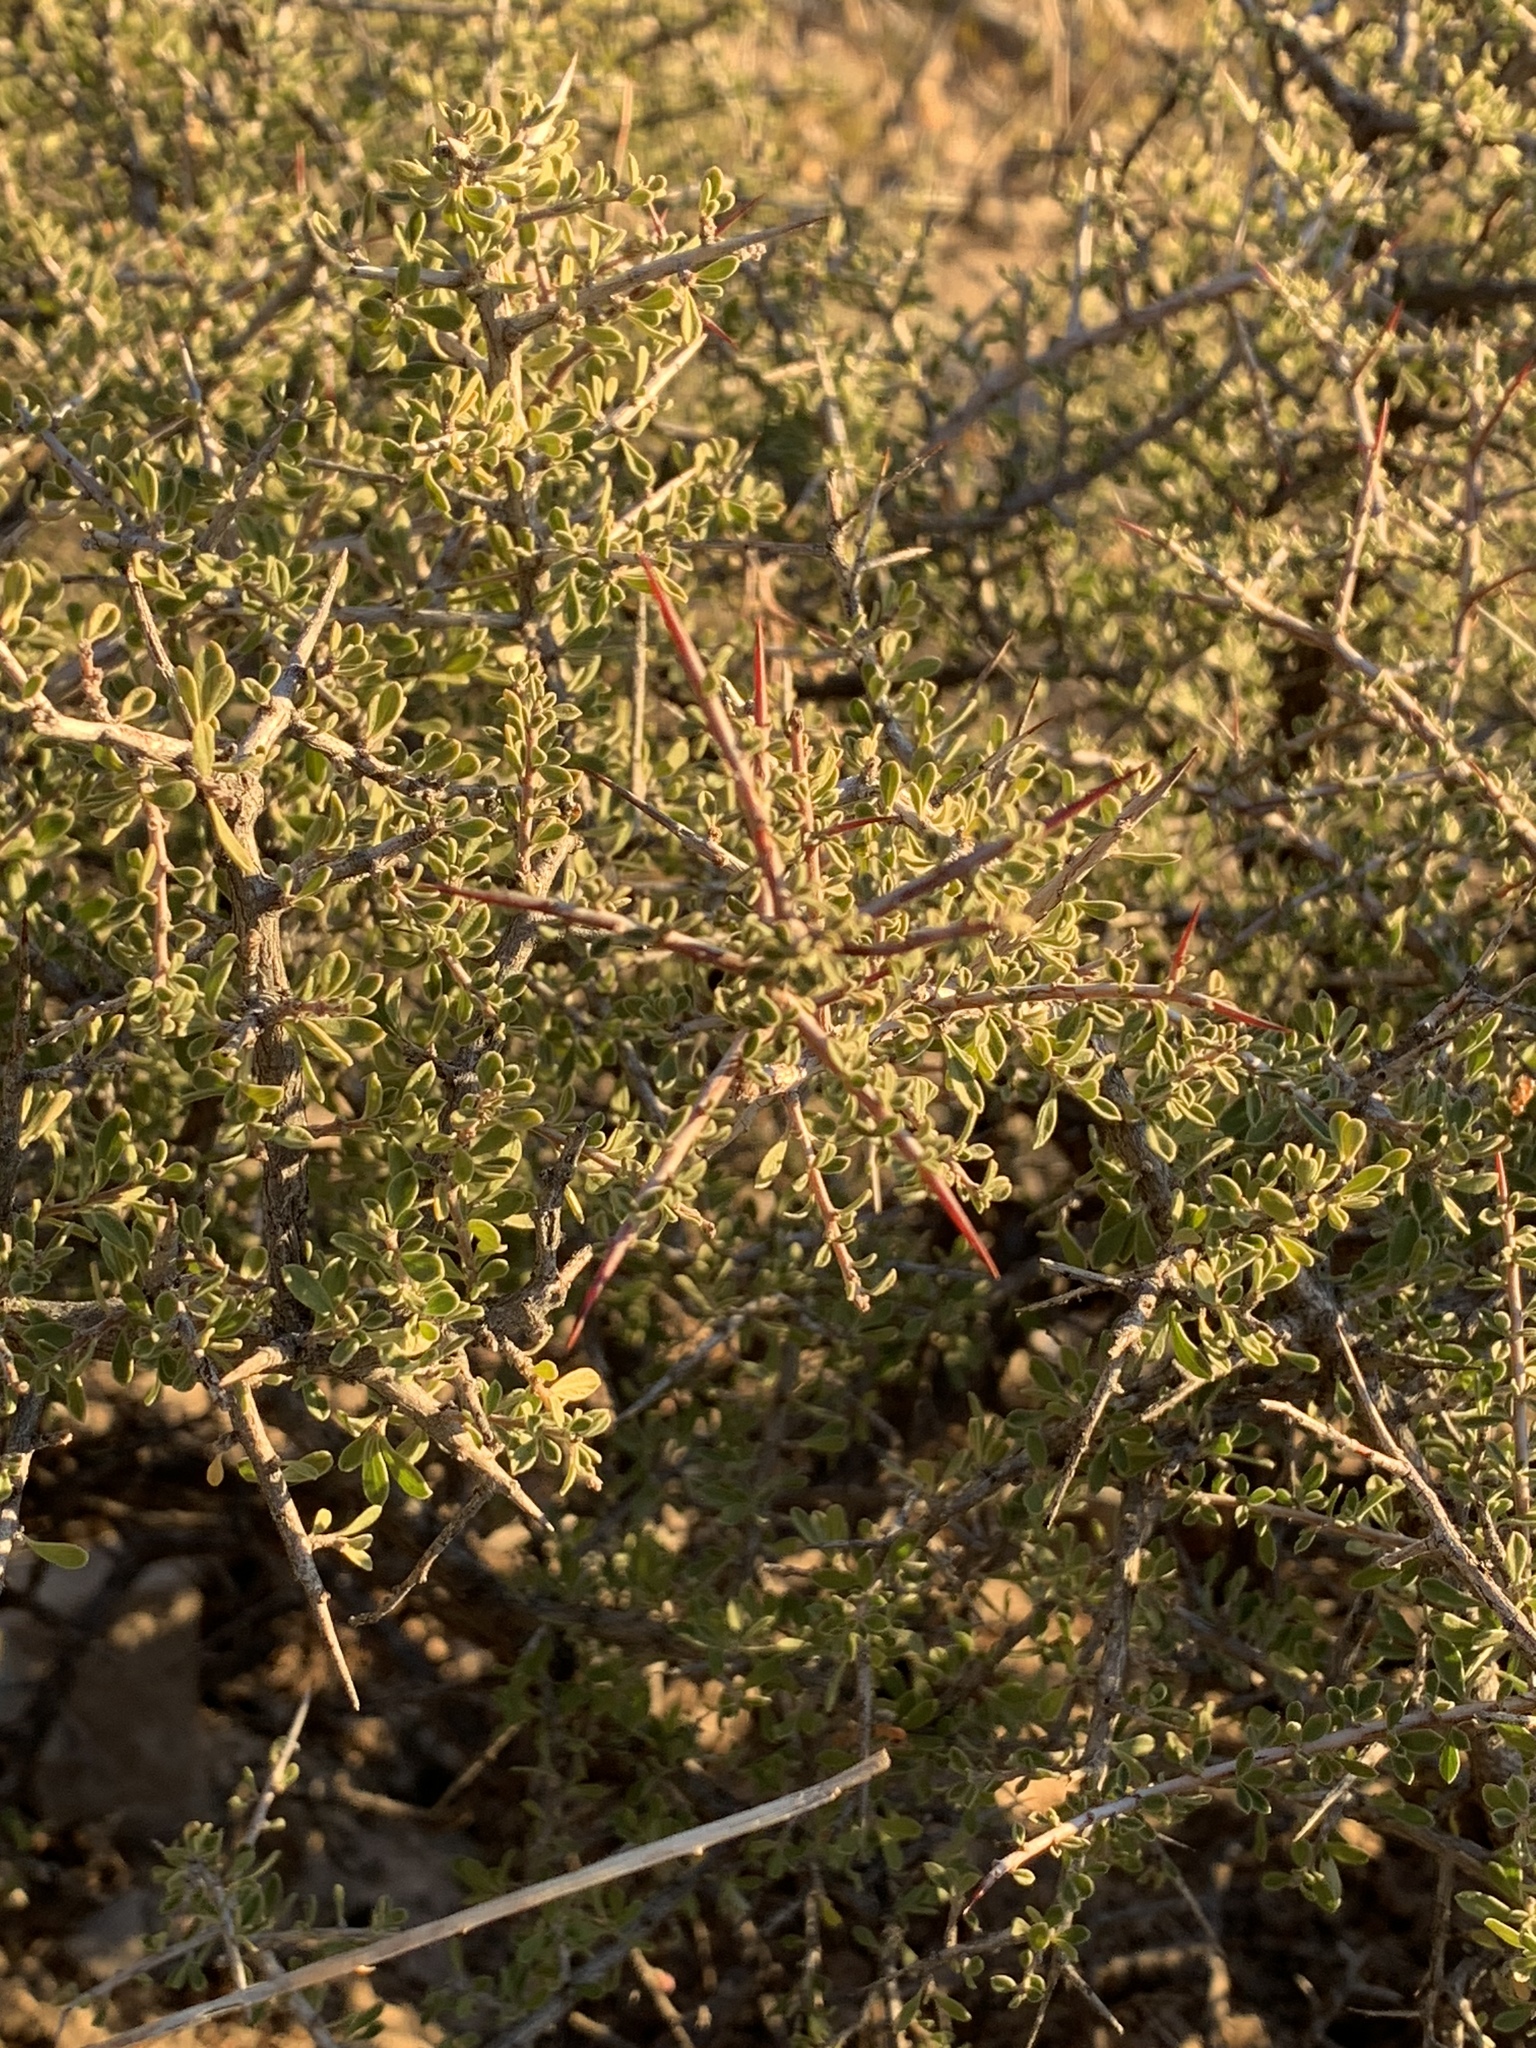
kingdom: Plantae
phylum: Tracheophyta
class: Magnoliopsida
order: Rosales
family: Rhamnaceae
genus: Condalia
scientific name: Condalia warnockii
